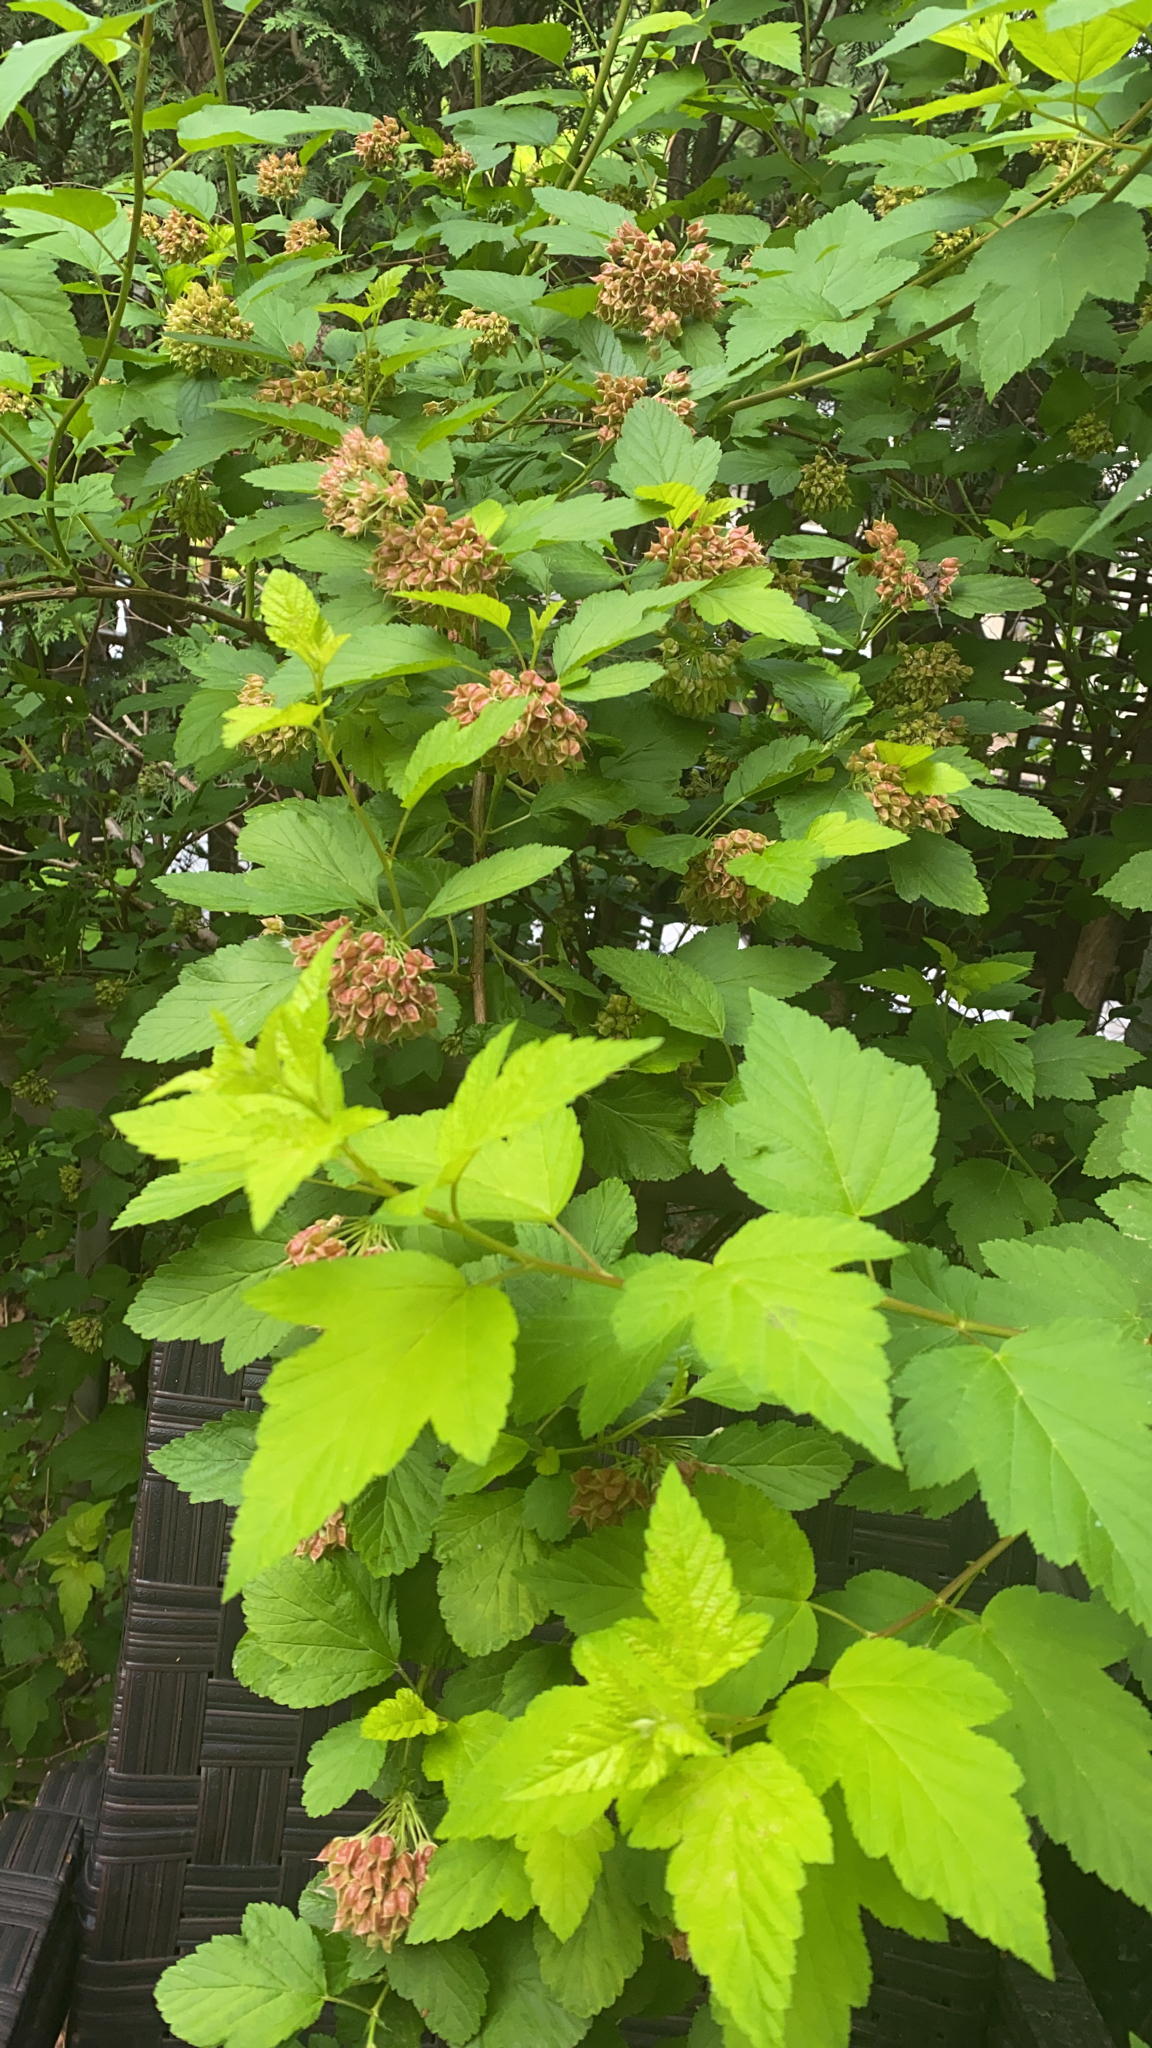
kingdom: Plantae
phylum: Tracheophyta
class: Magnoliopsida
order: Rosales
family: Rosaceae
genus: Physocarpus
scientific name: Physocarpus opulifolius
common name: Ninebark
